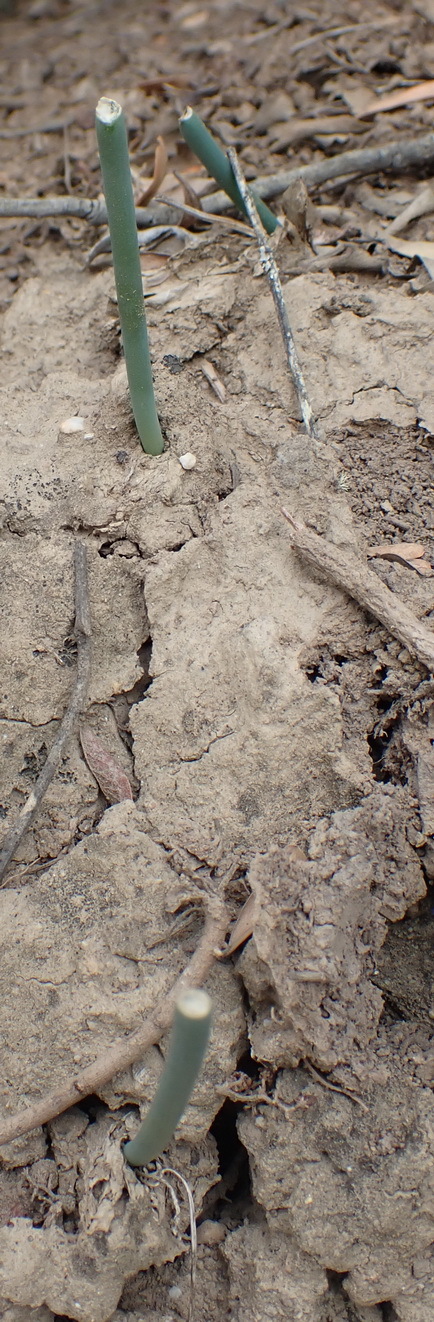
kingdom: Plantae
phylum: Tracheophyta
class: Liliopsida
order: Asparagales
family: Asparagaceae
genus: Drimia
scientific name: Drimia anomala
